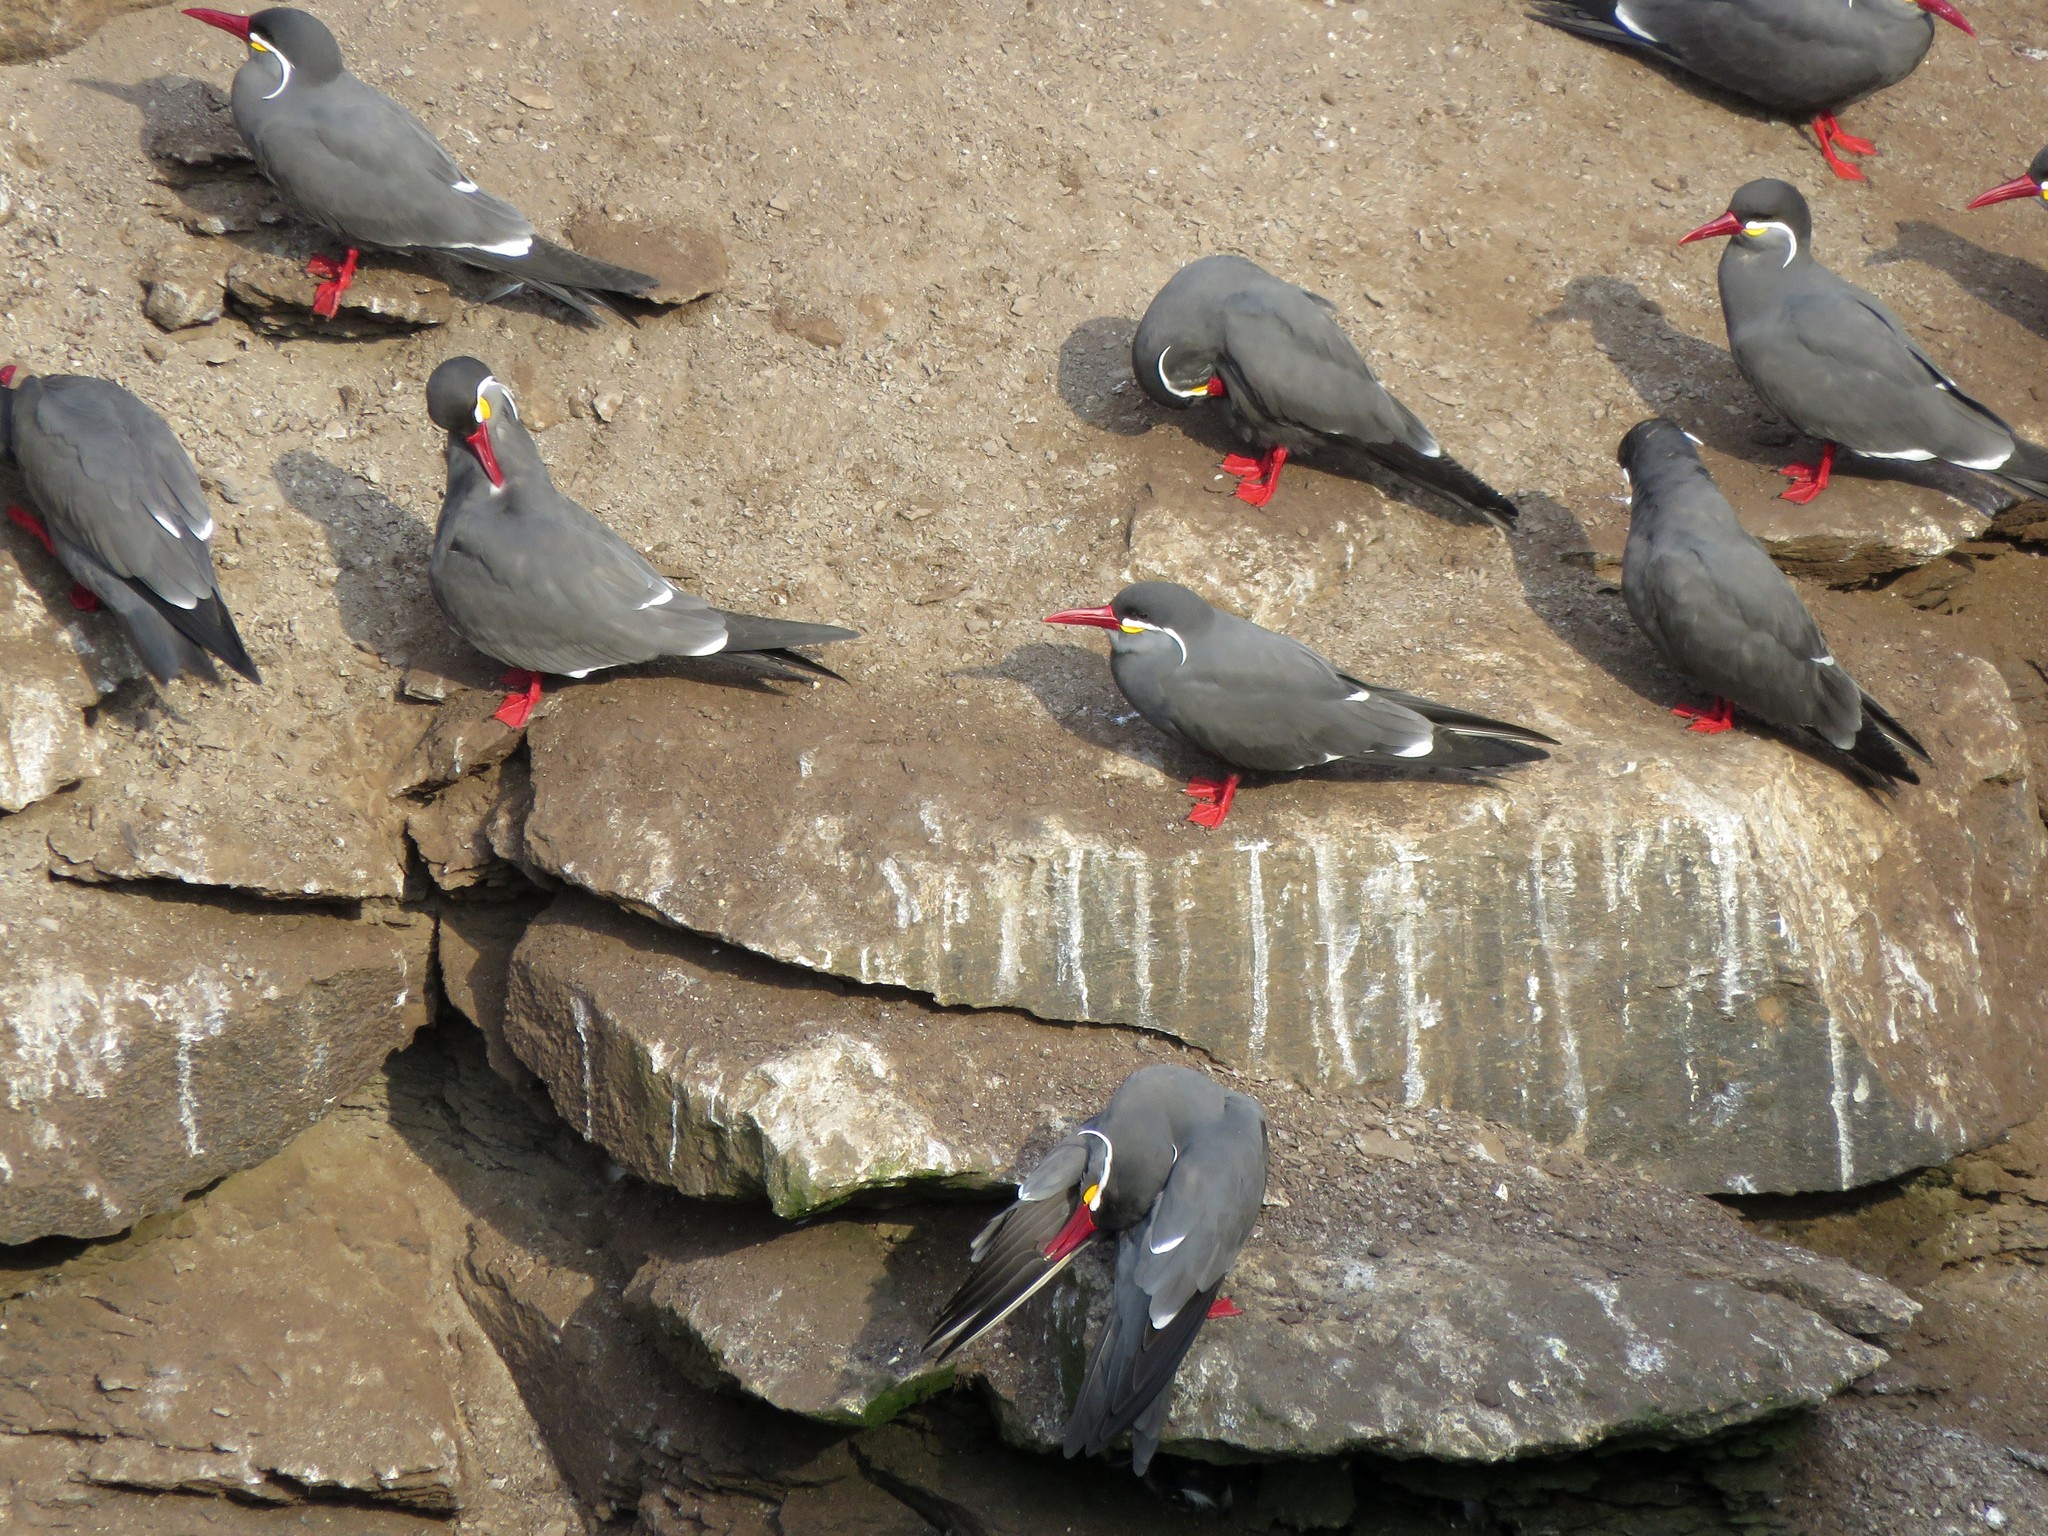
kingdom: Animalia
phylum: Chordata
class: Aves
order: Charadriiformes
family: Laridae
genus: Larosterna
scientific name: Larosterna inca
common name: Inca tern
